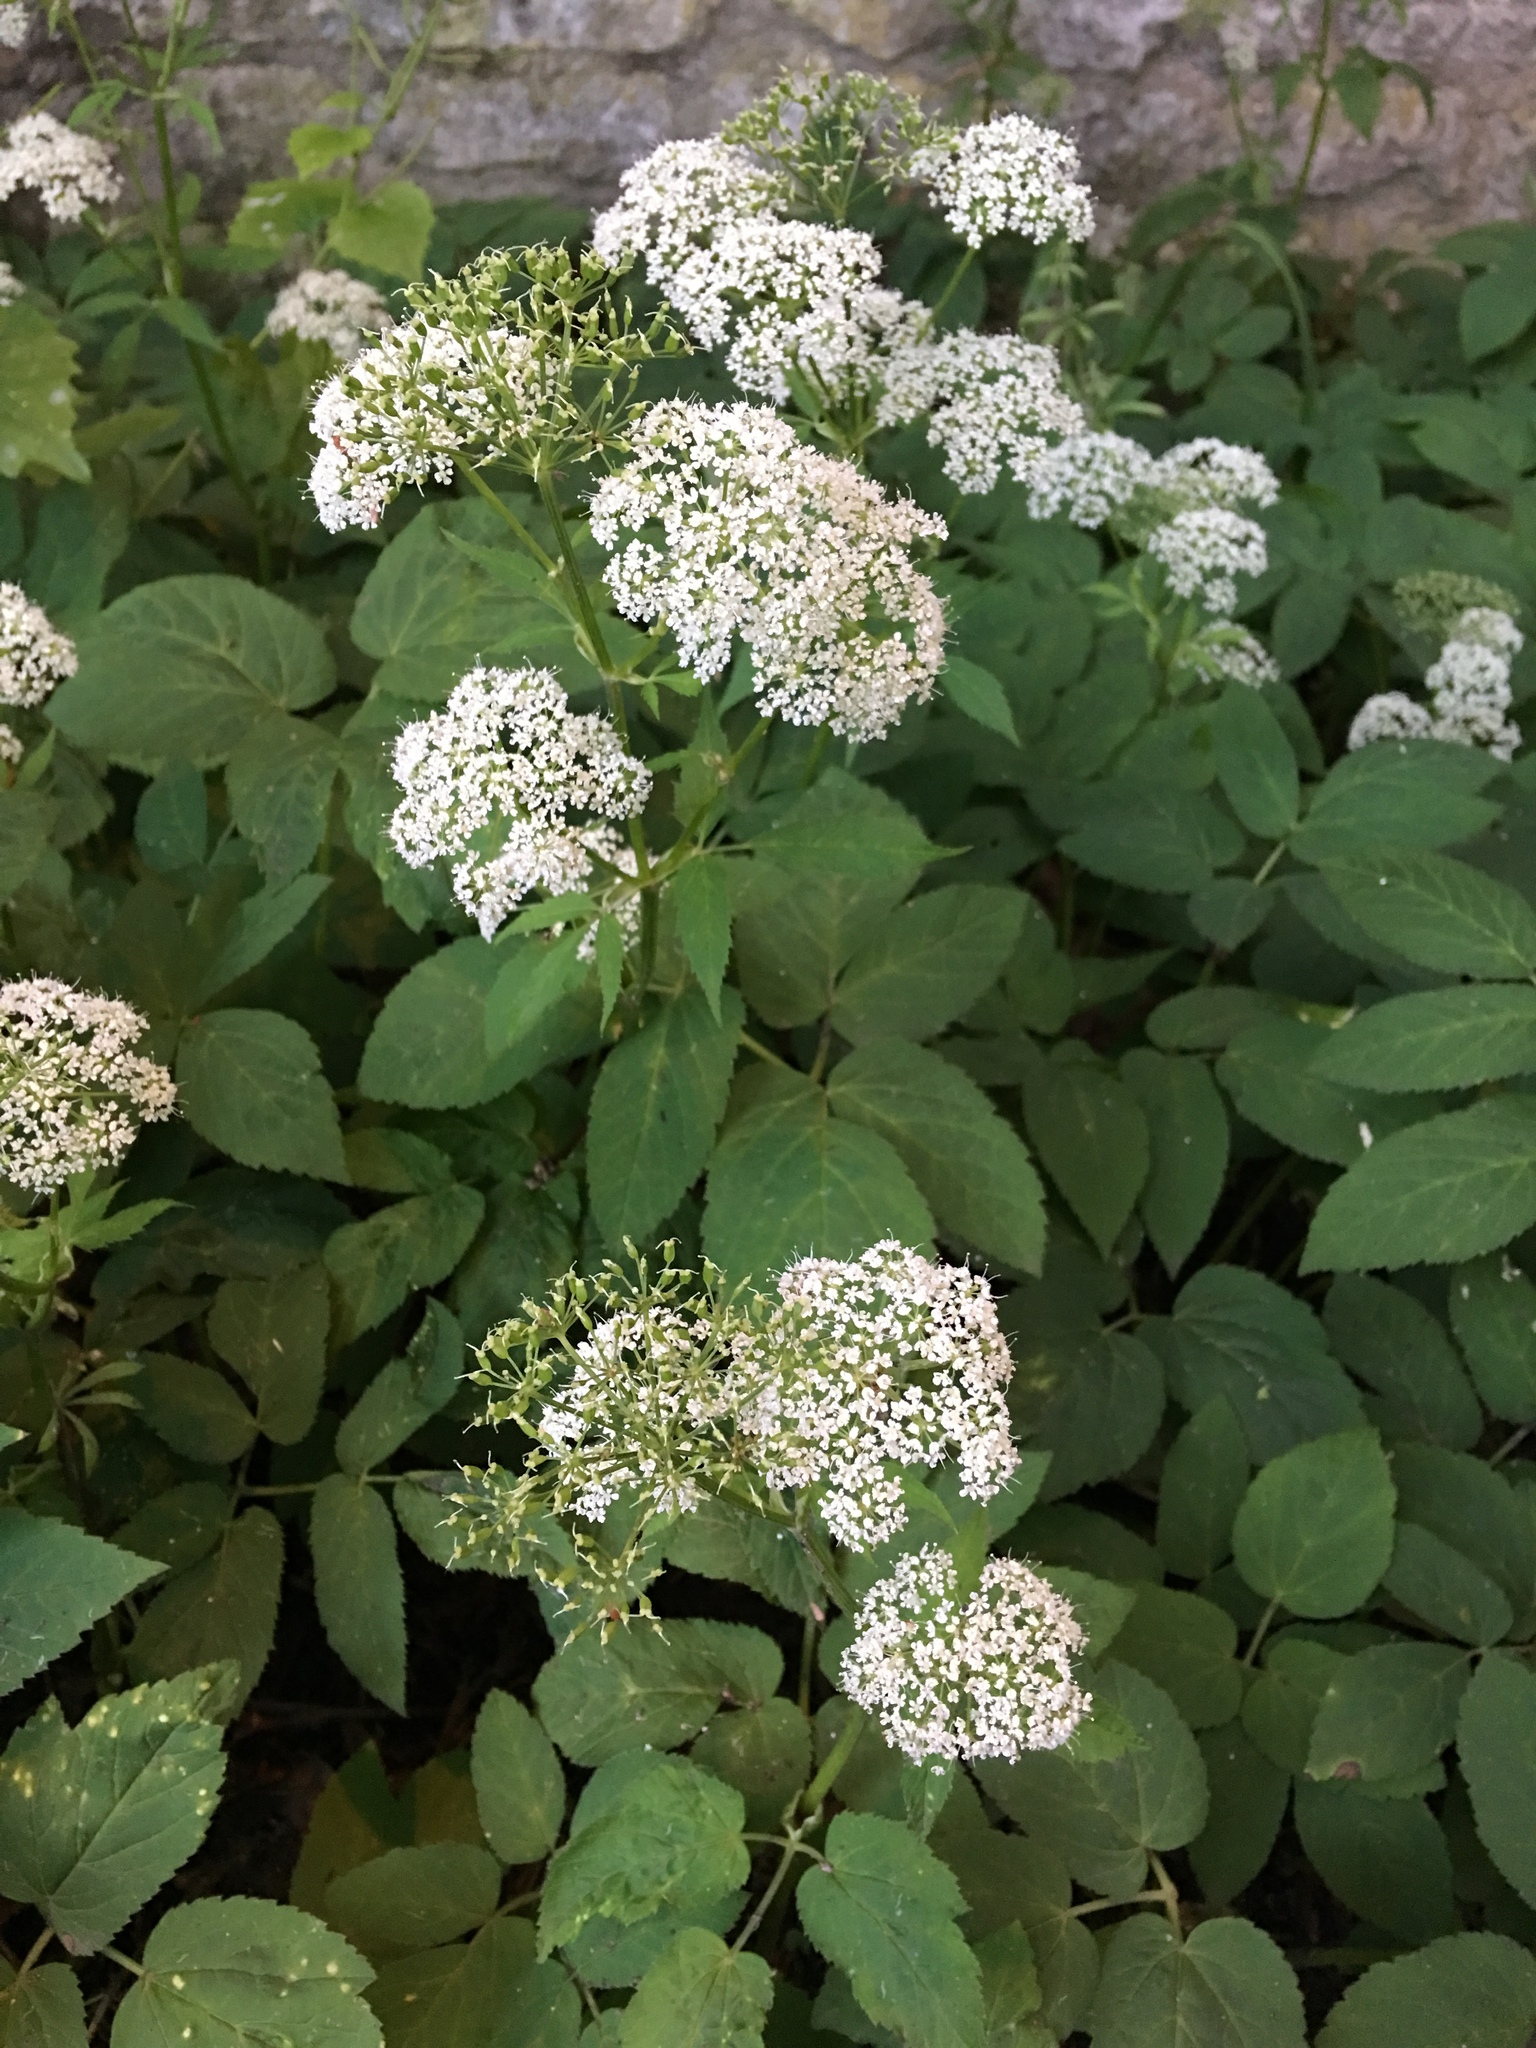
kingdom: Plantae
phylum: Tracheophyta
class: Magnoliopsida
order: Apiales
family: Apiaceae
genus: Aegopodium
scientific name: Aegopodium podagraria
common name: Ground-elder
